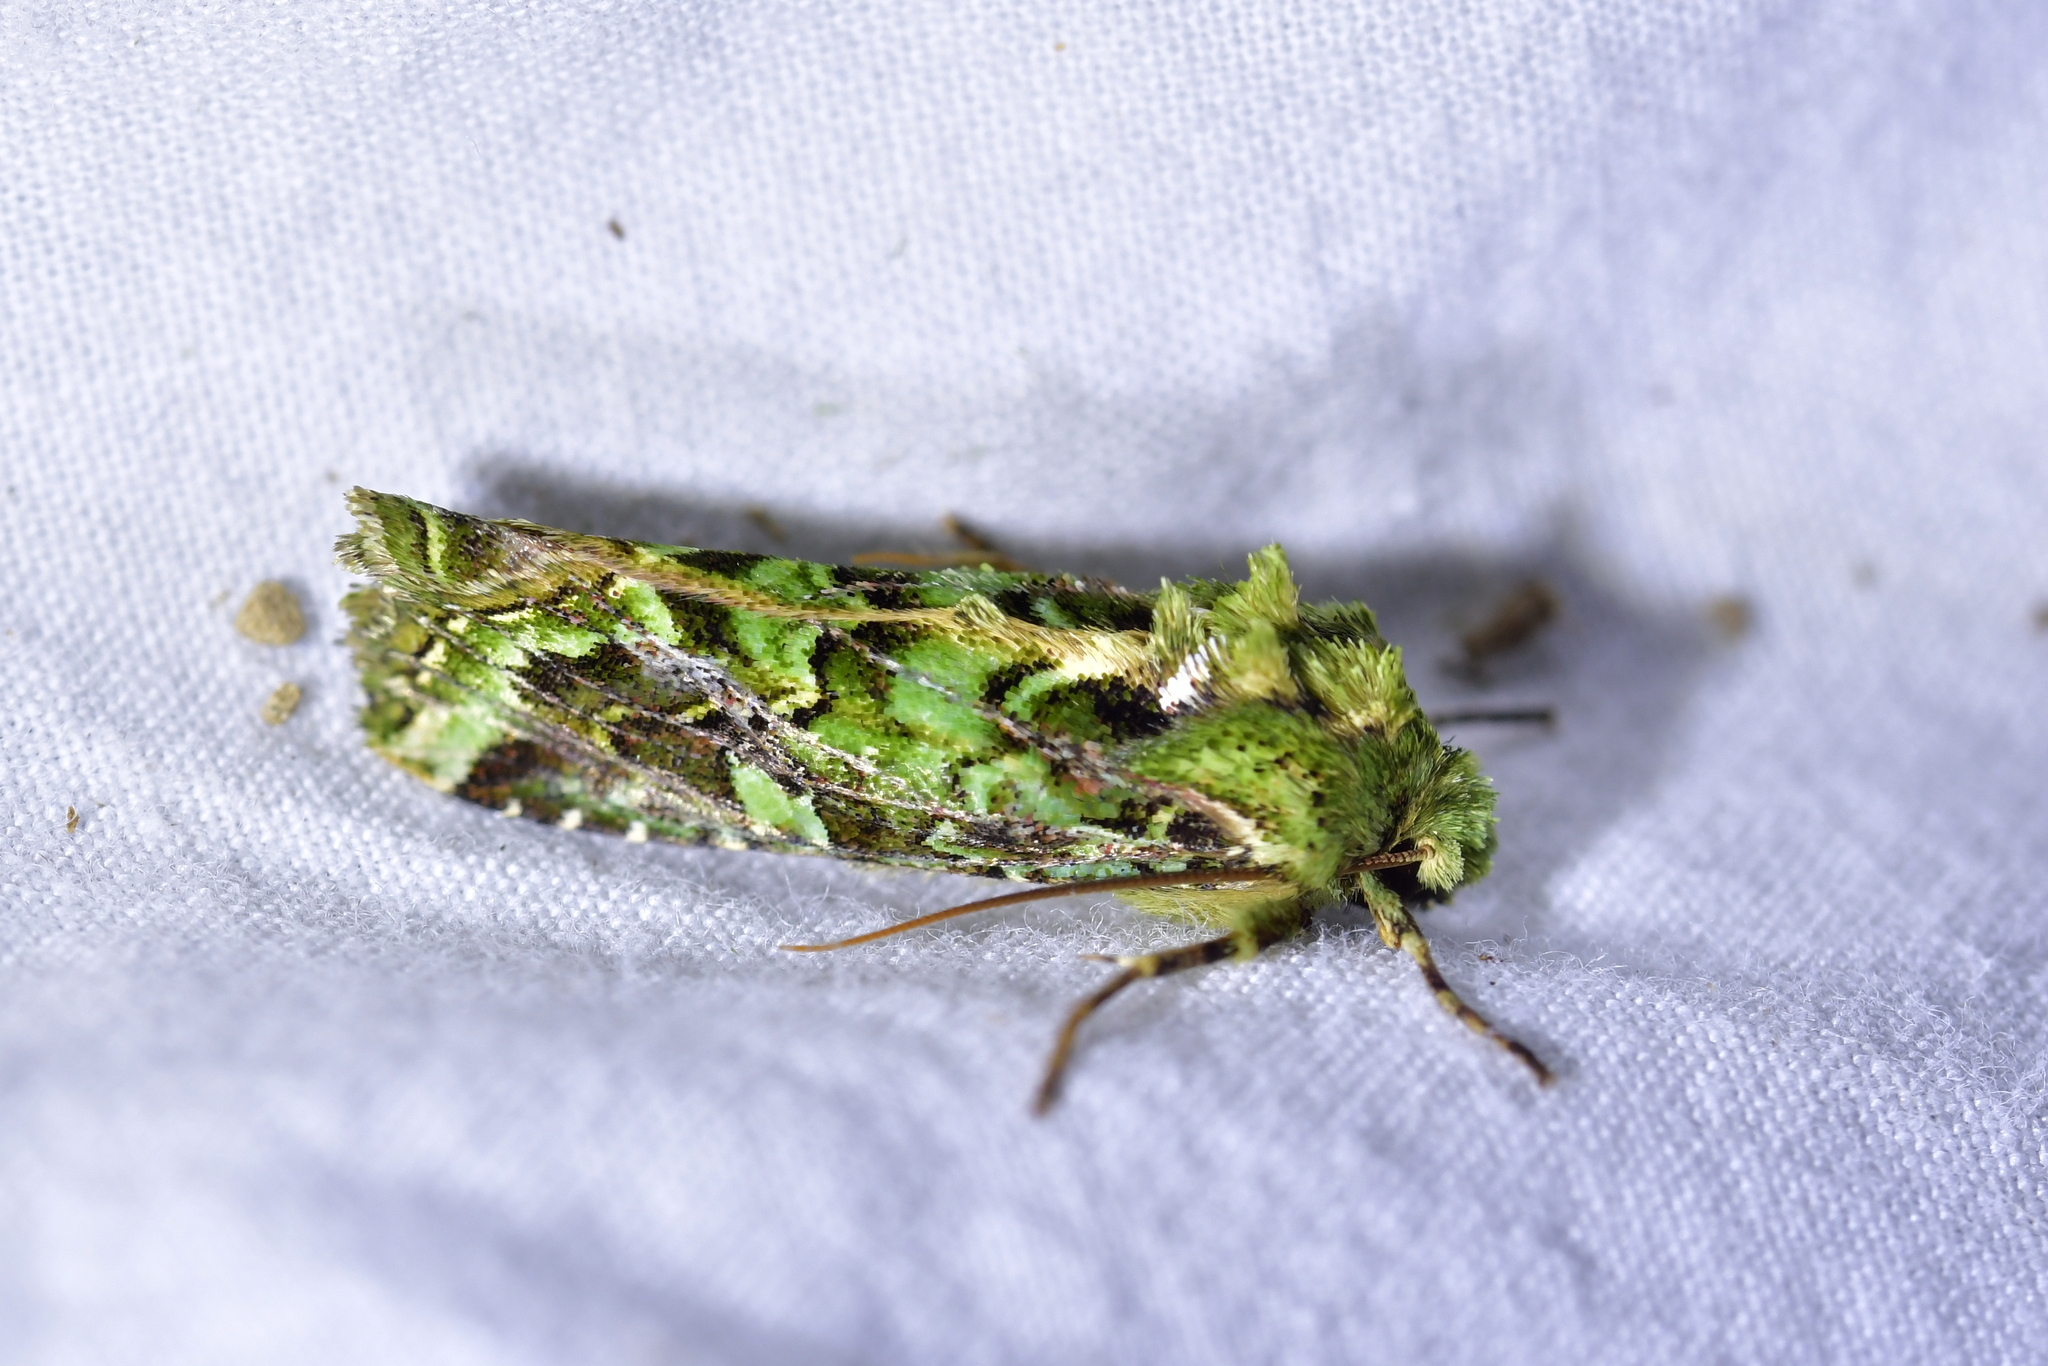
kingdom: Animalia
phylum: Arthropoda
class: Insecta
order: Lepidoptera
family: Noctuidae
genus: Feredayia
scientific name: Feredayia grammosa
